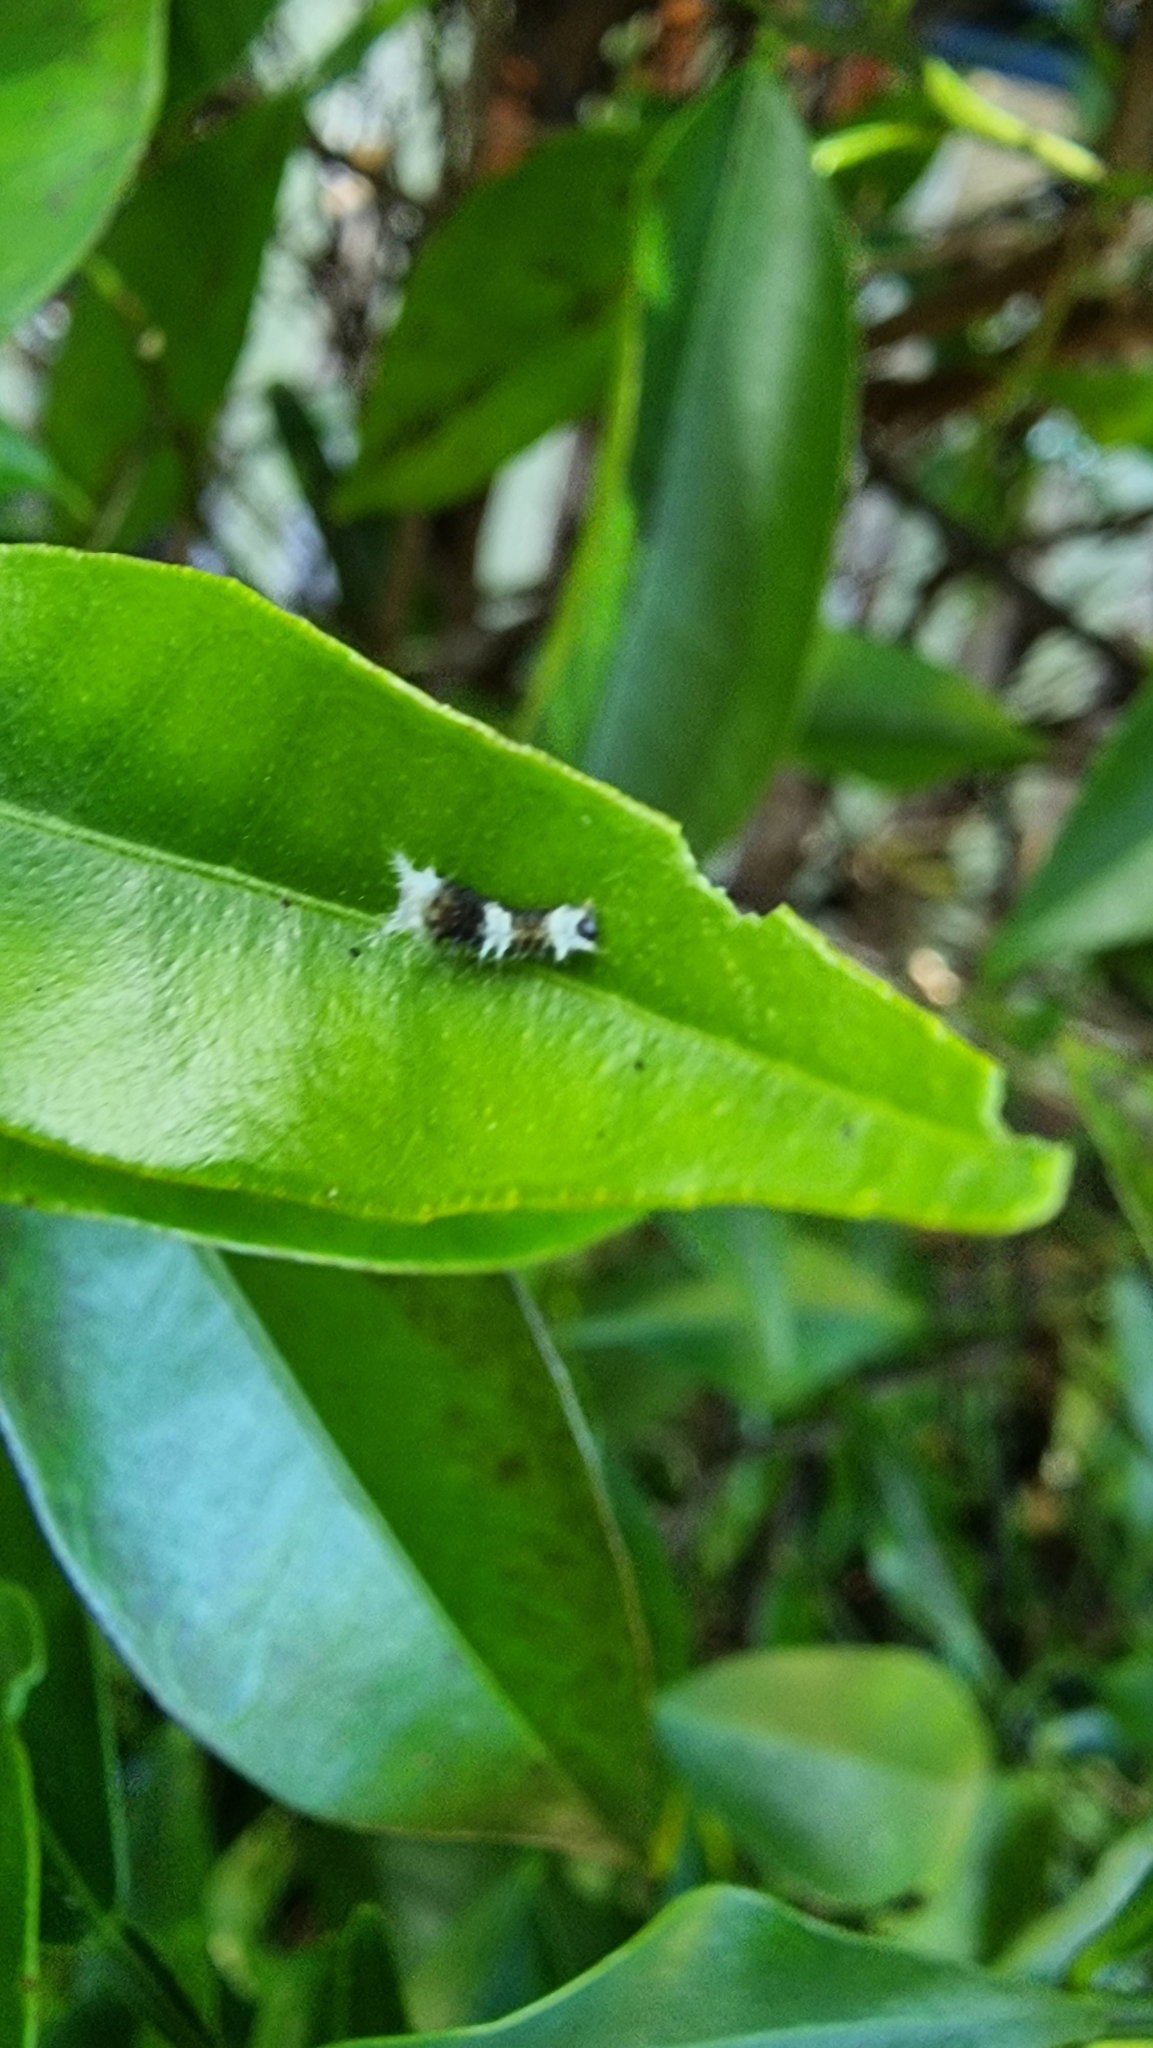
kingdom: Animalia
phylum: Arthropoda
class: Insecta
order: Lepidoptera
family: Papilionidae
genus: Papilio
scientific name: Papilio aegeus
